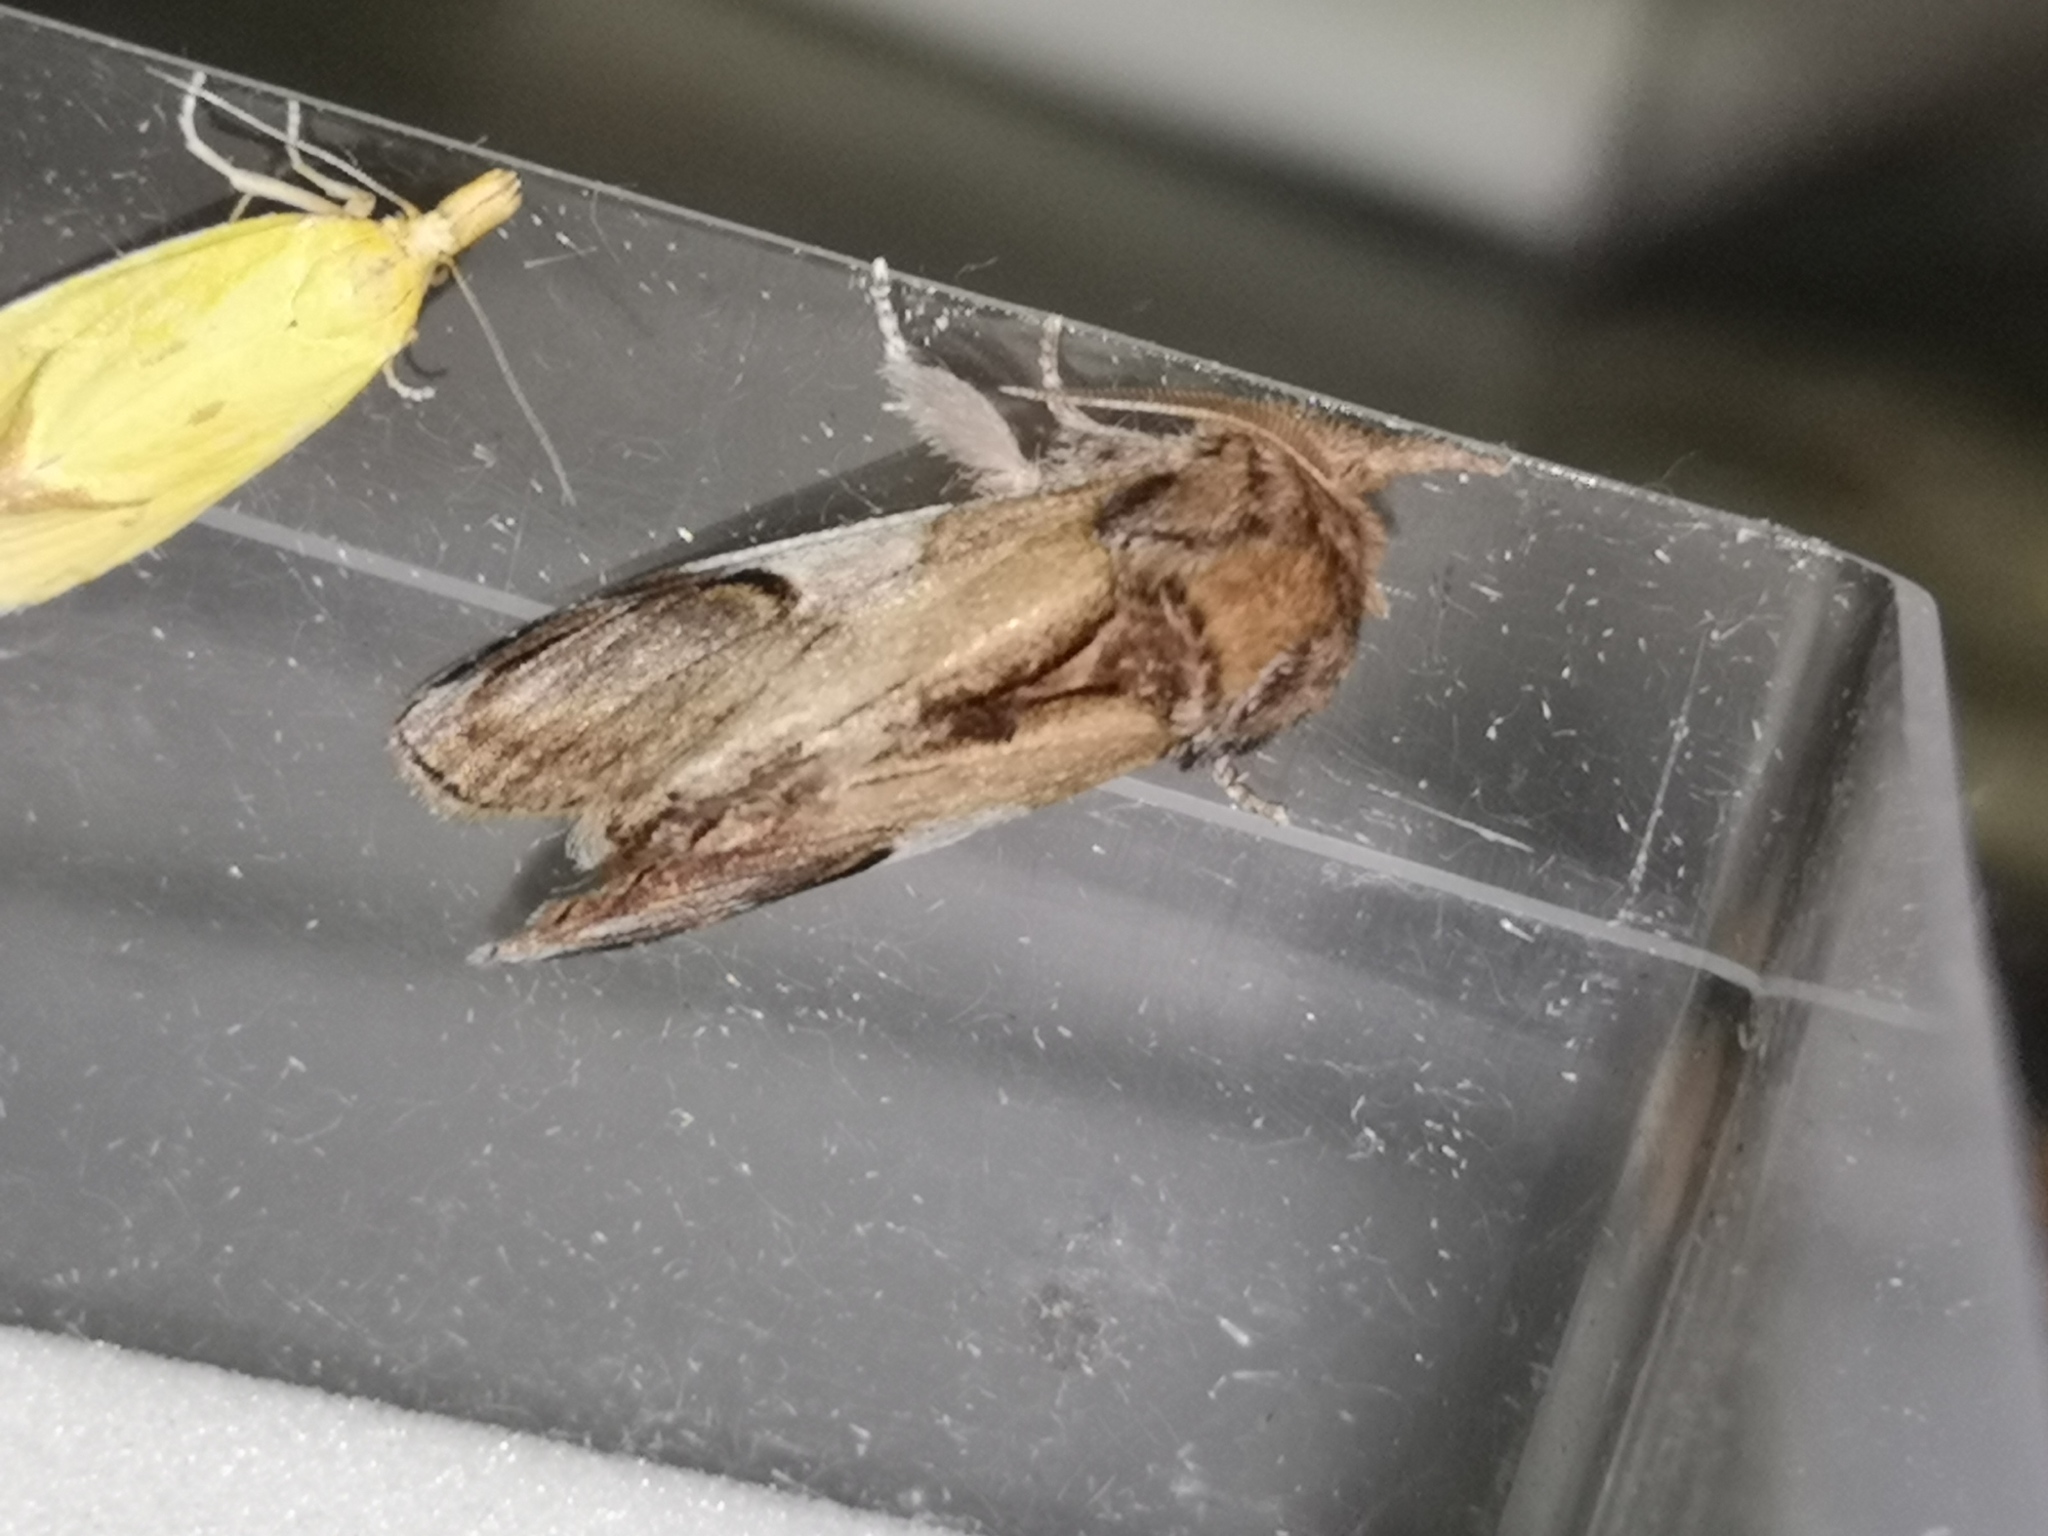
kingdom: Animalia
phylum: Arthropoda
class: Insecta
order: Lepidoptera
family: Notodontidae
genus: Notodonta
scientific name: Notodonta ziczac
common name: Pebble prominent
